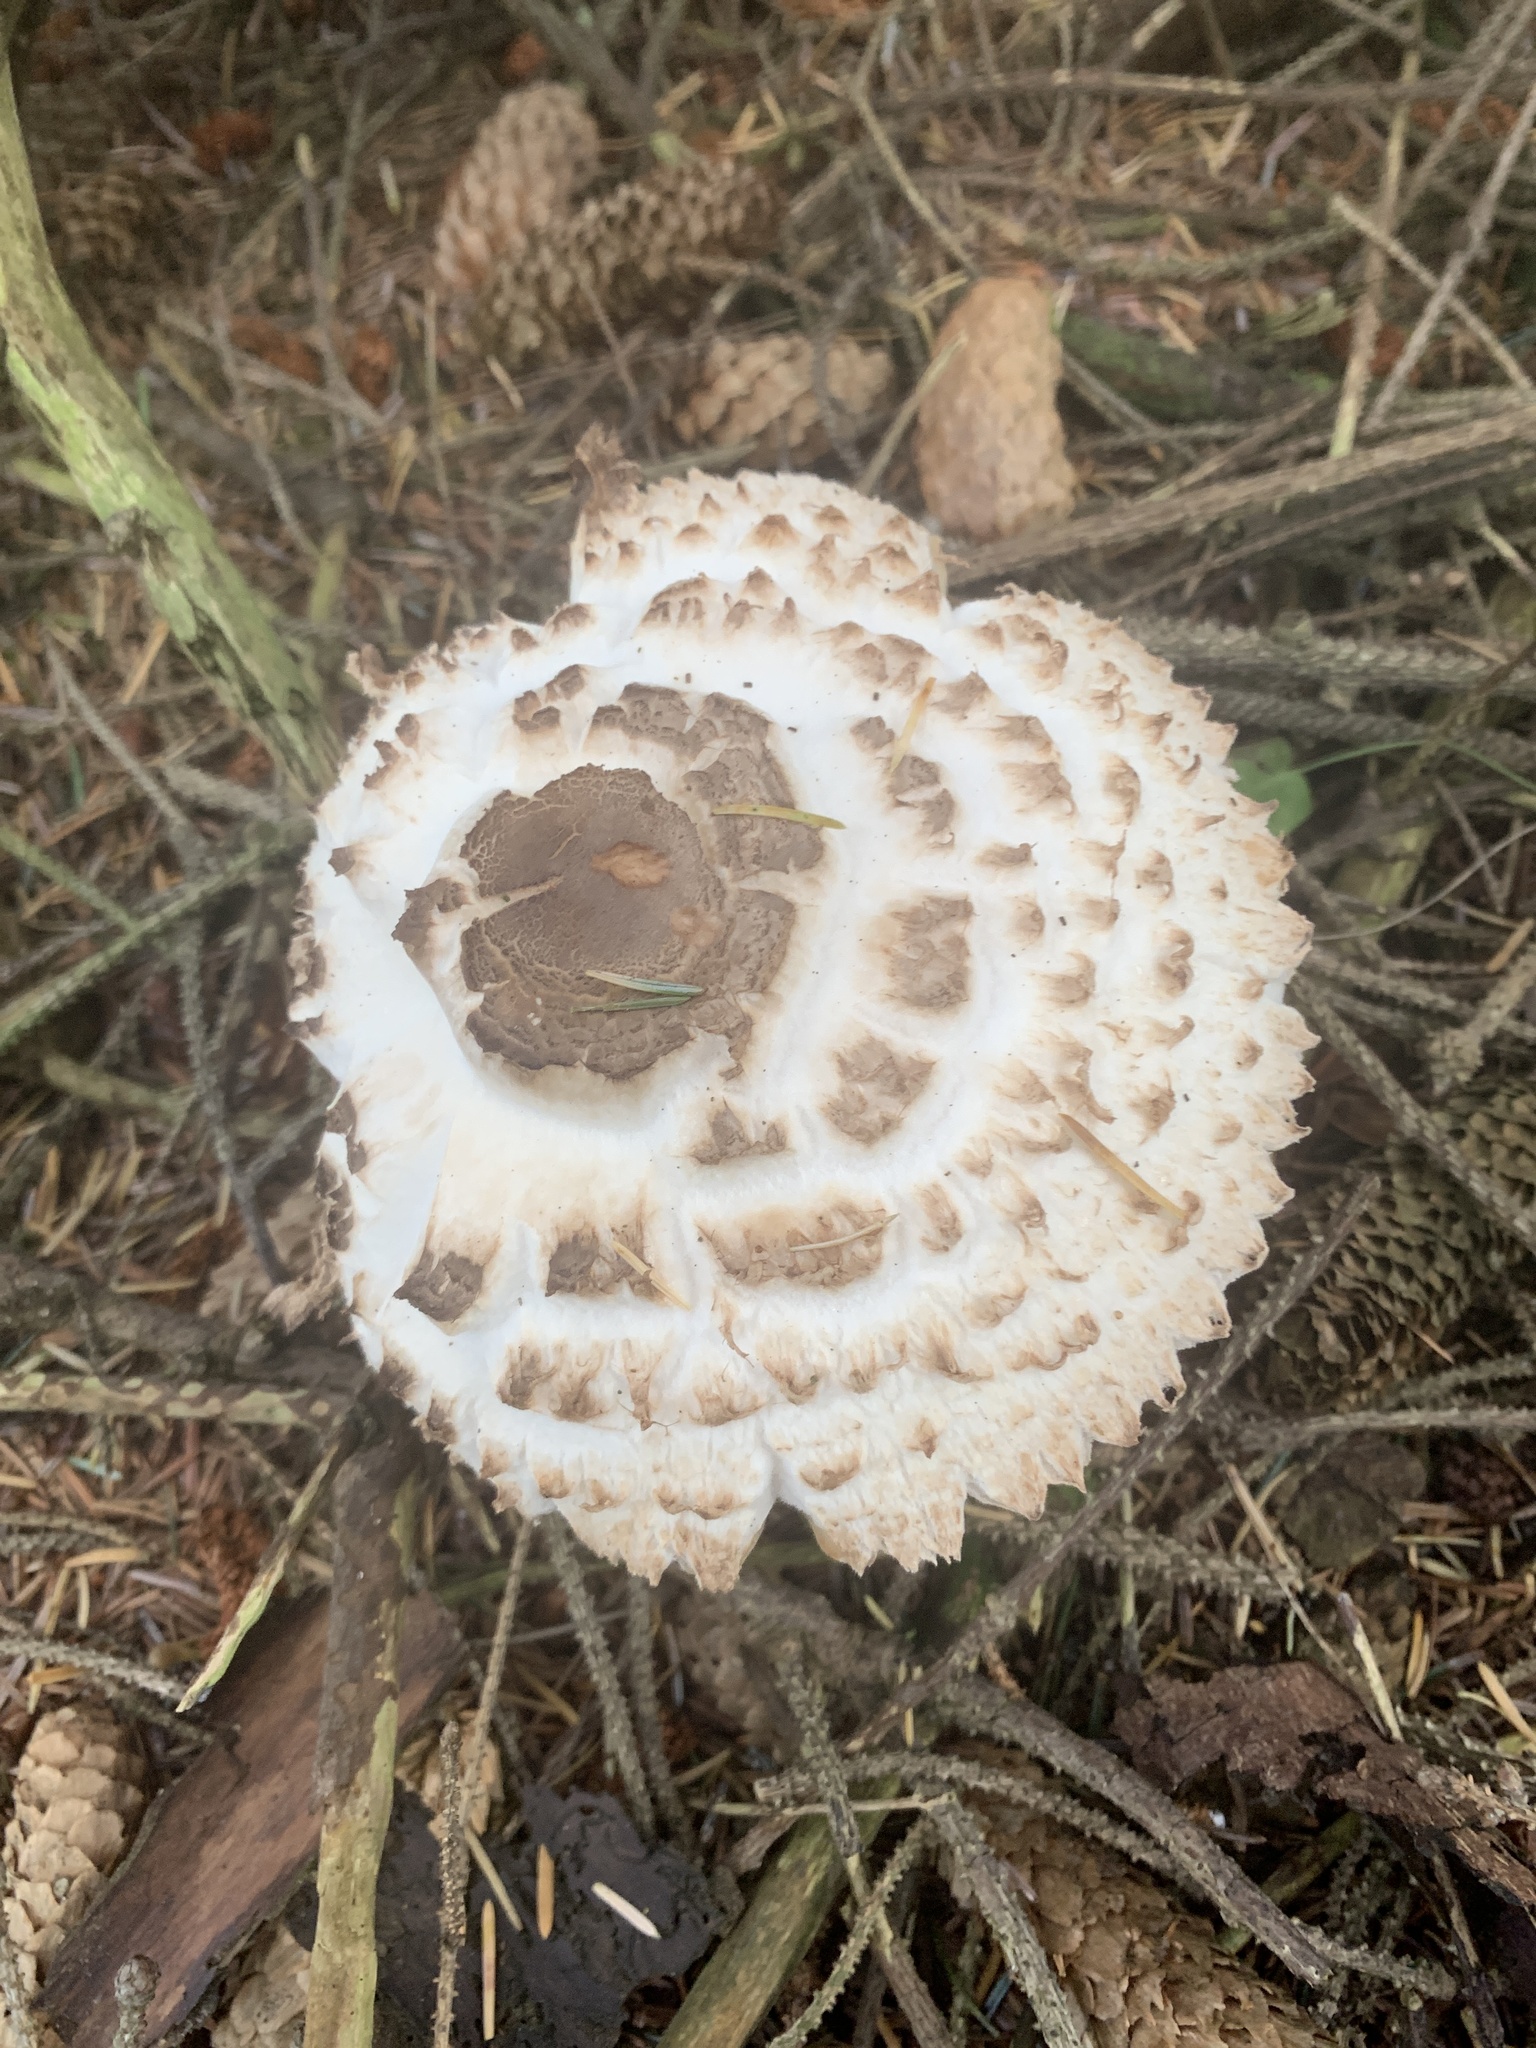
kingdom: Fungi
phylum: Basidiomycota
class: Agaricomycetes
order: Agaricales
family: Agaricaceae
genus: Leucoagaricus
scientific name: Leucoagaricus nympharum
